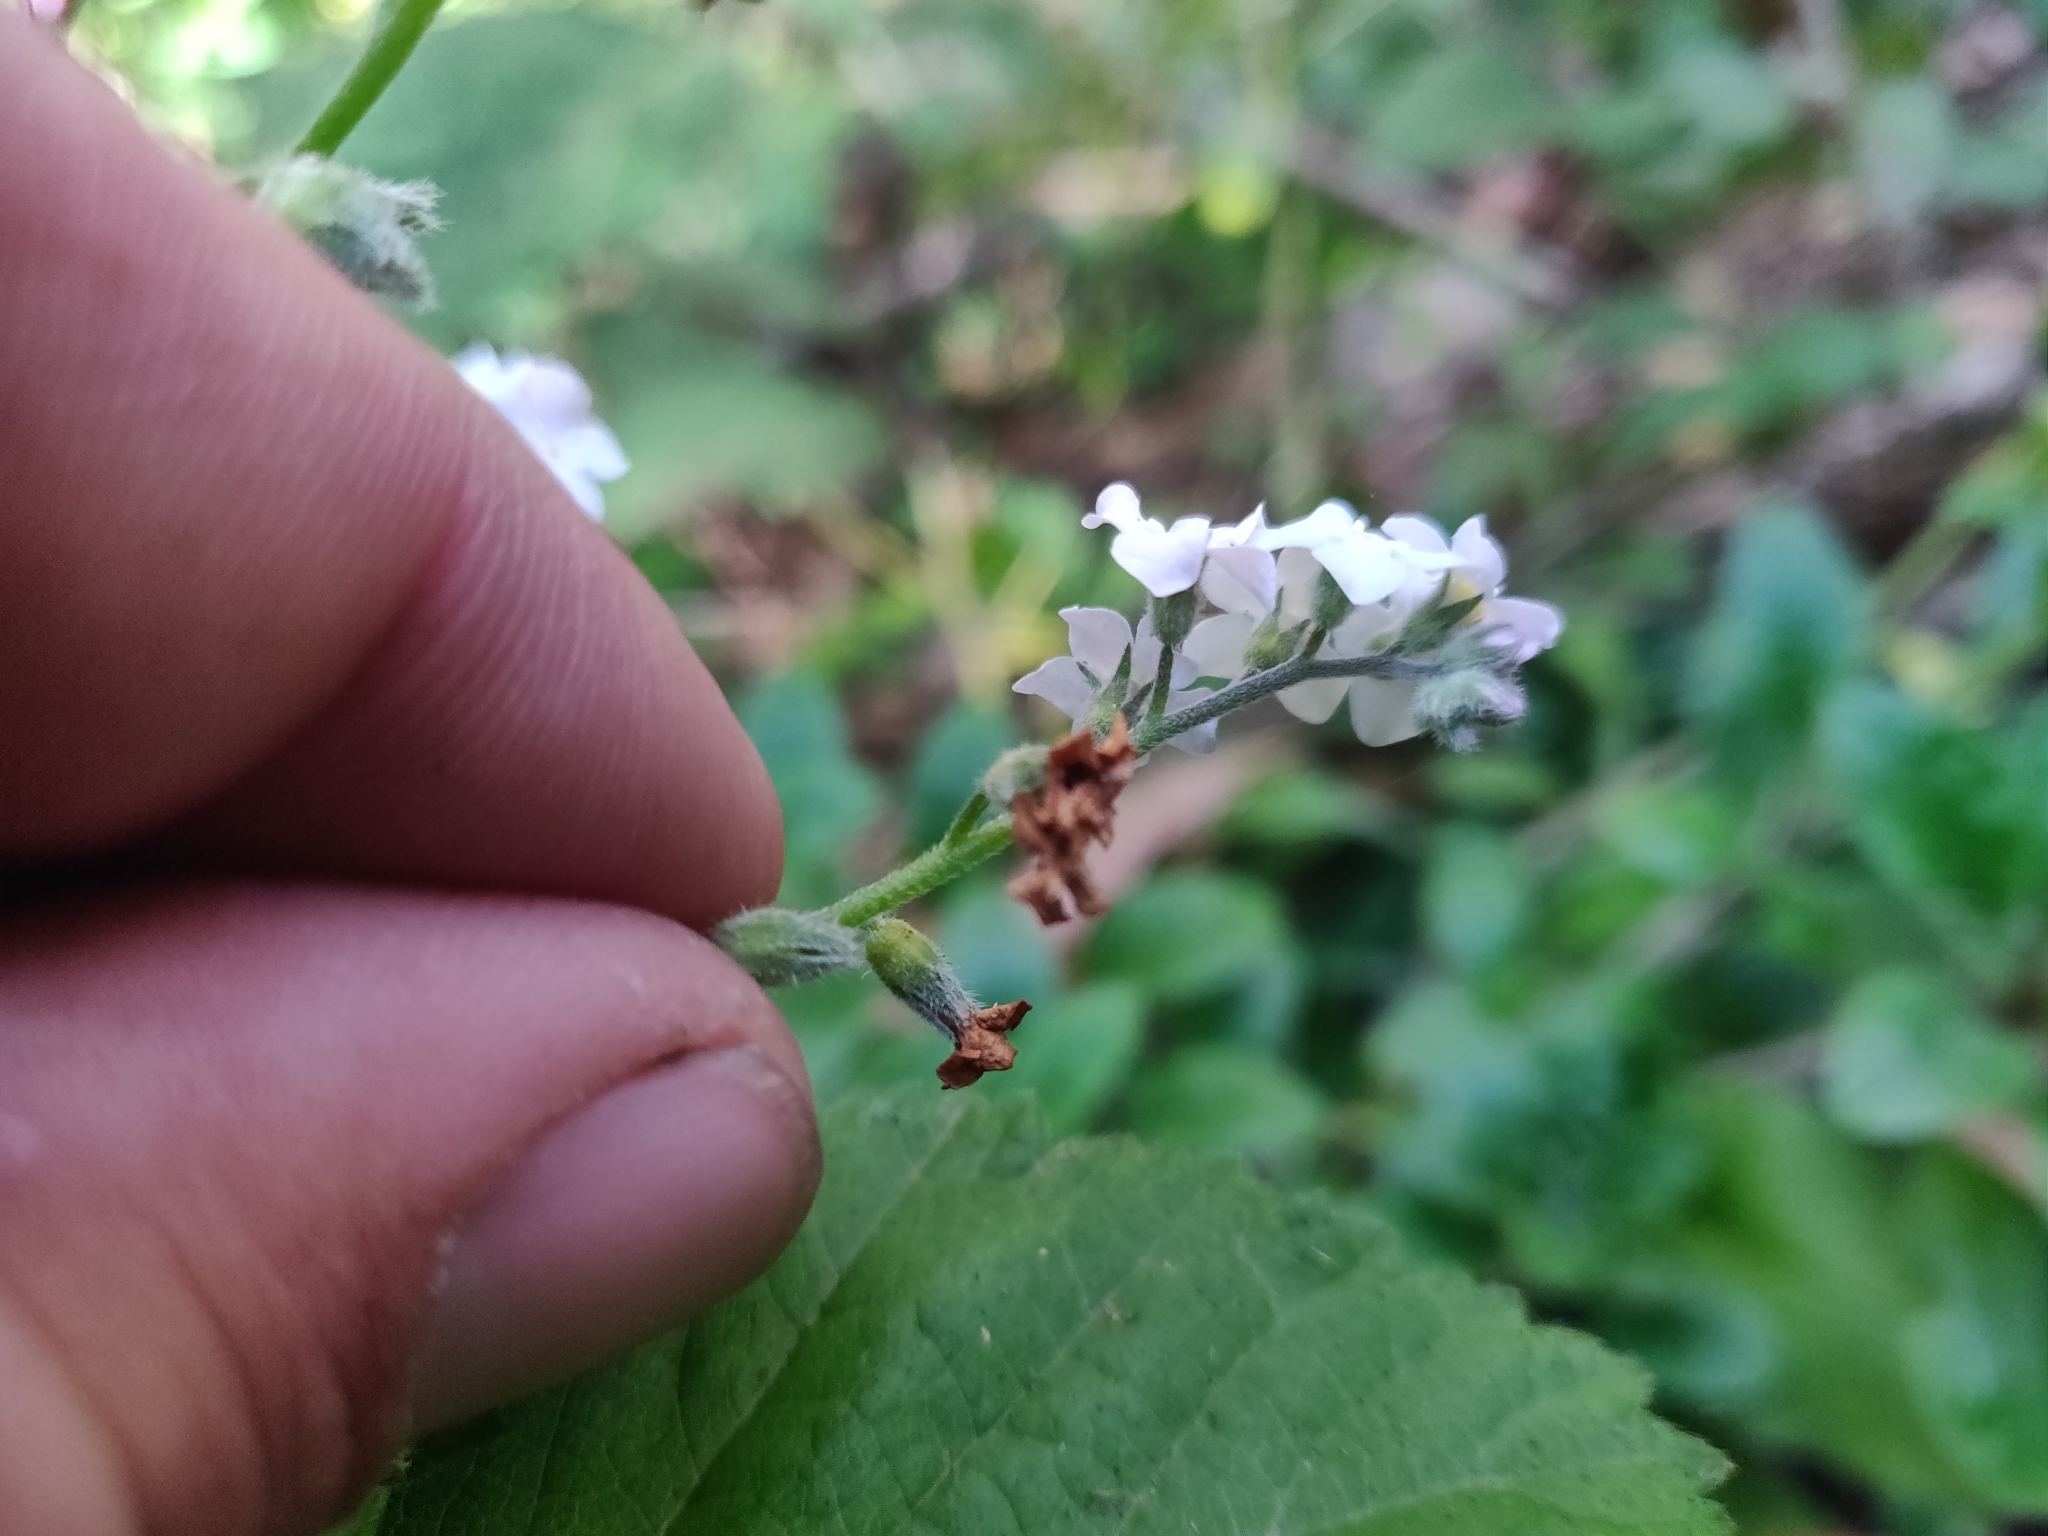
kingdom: Plantae
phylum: Tracheophyta
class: Magnoliopsida
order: Boraginales
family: Boraginaceae
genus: Myosotis
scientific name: Myosotis latifolia
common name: Broadleaf forget-me-not
